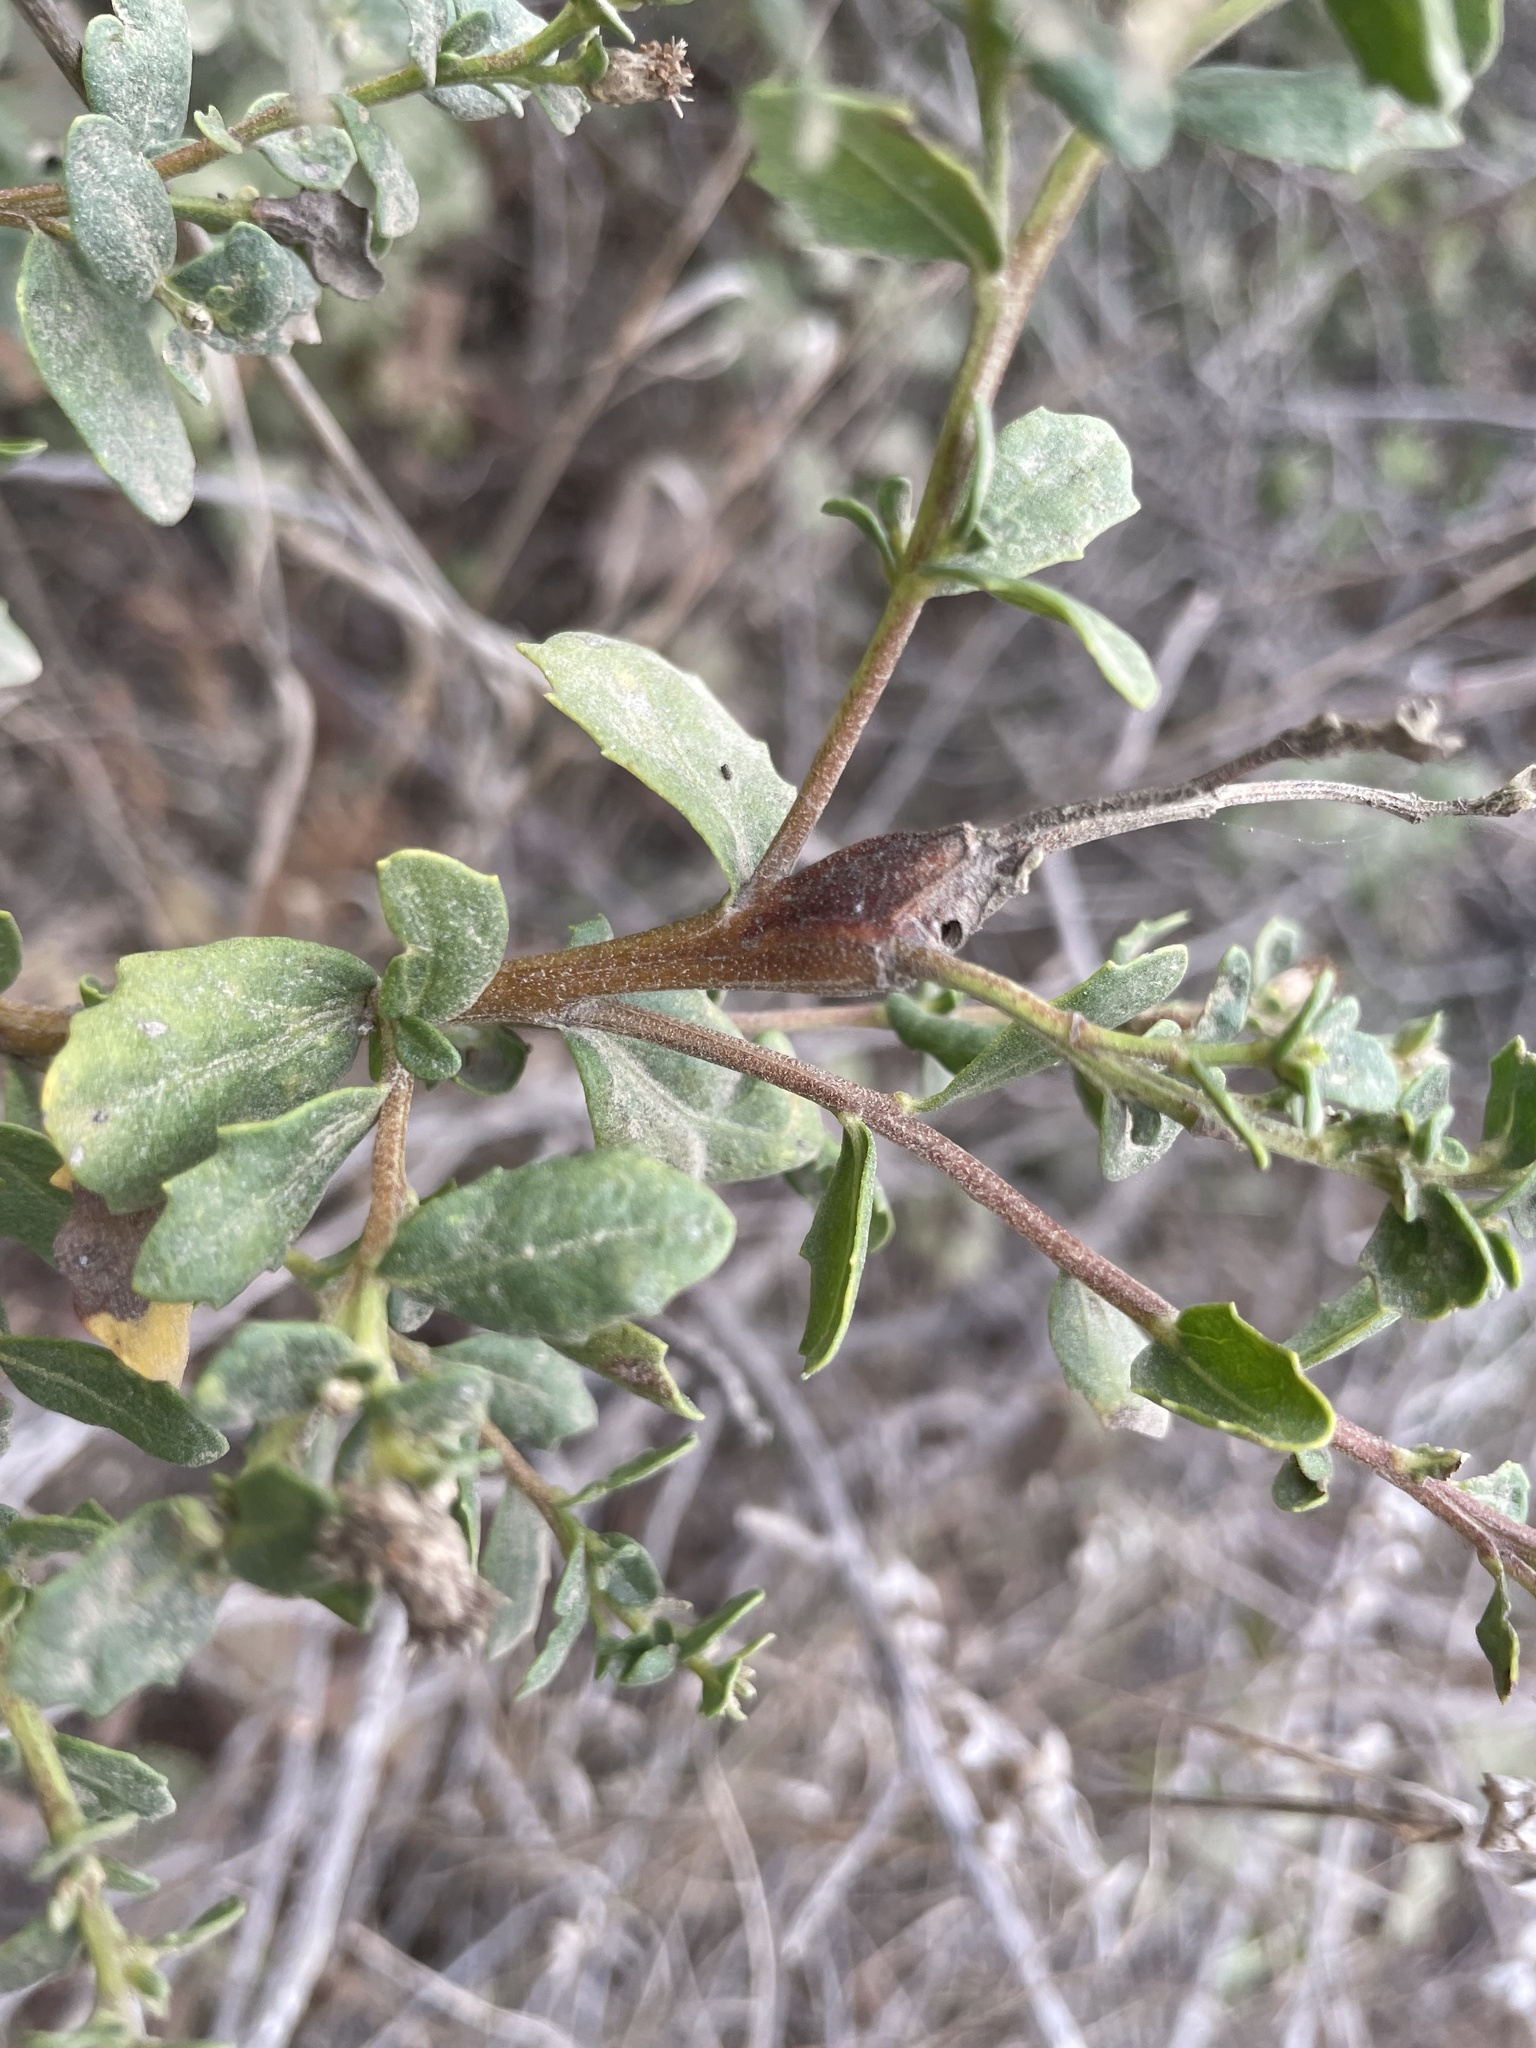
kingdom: Animalia
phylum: Arthropoda
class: Insecta
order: Lepidoptera
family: Gelechiidae
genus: Gnorimoschema
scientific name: Gnorimoschema baccharisella
